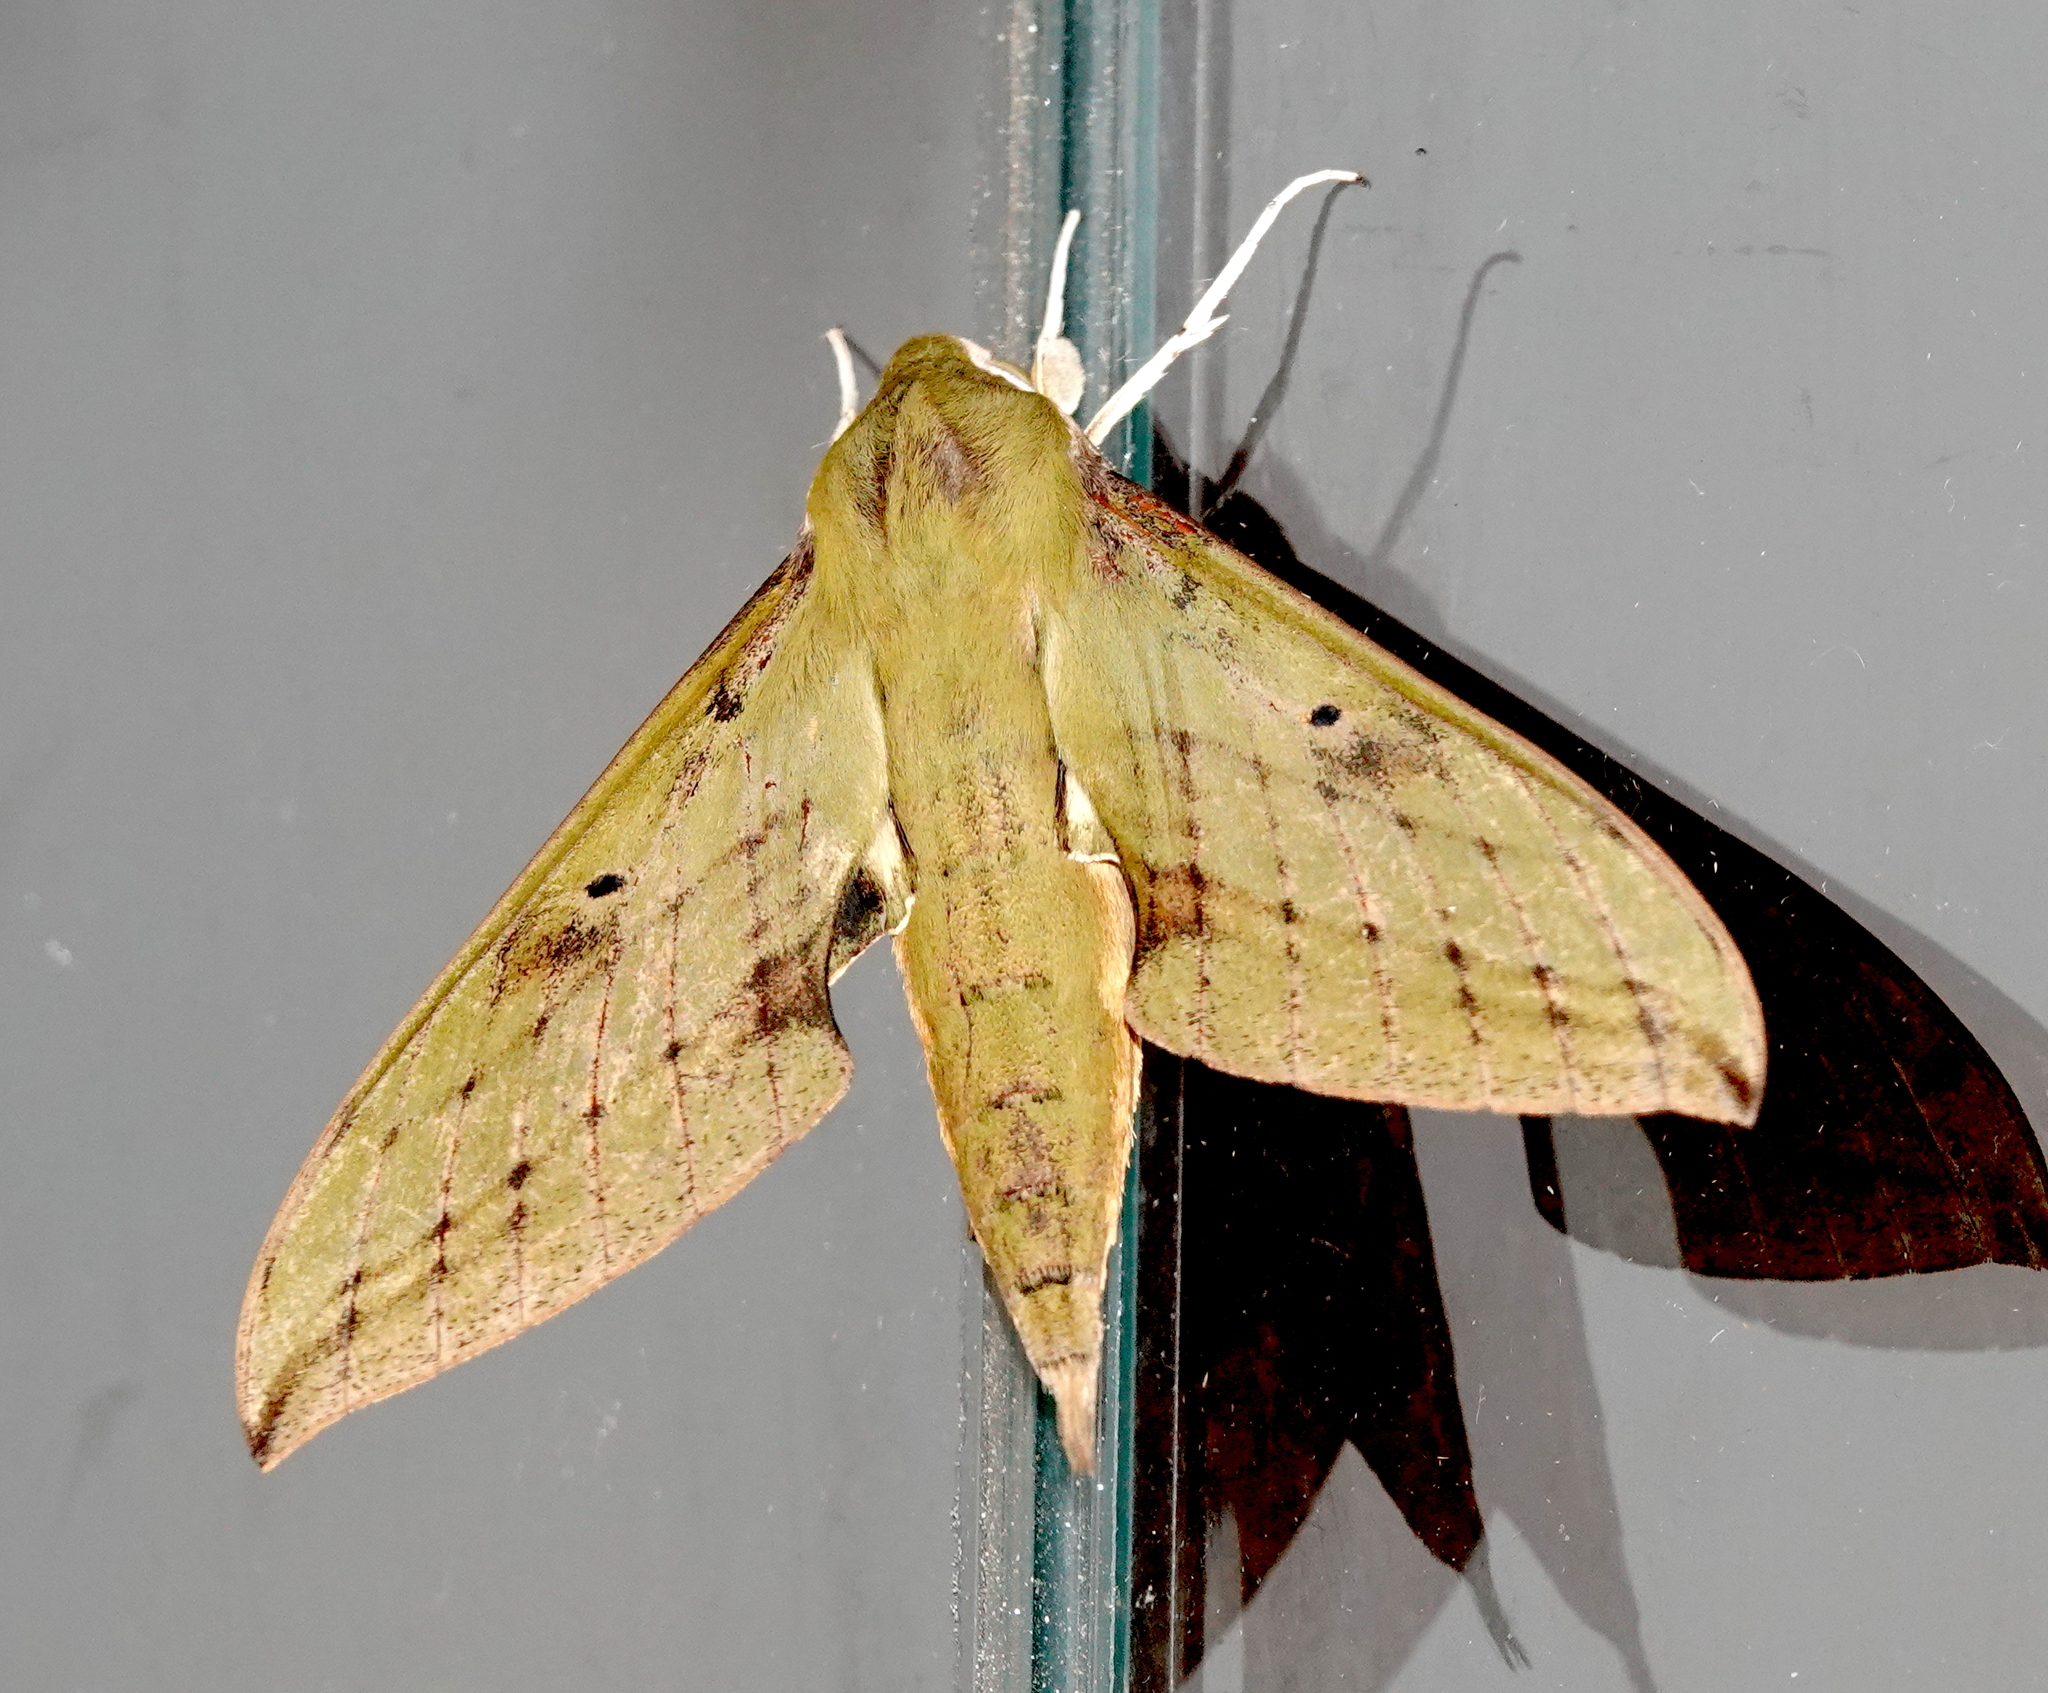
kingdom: Animalia
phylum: Arthropoda
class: Insecta
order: Lepidoptera
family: Sphingidae
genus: Xylophanes
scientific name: Xylophanes camilae
